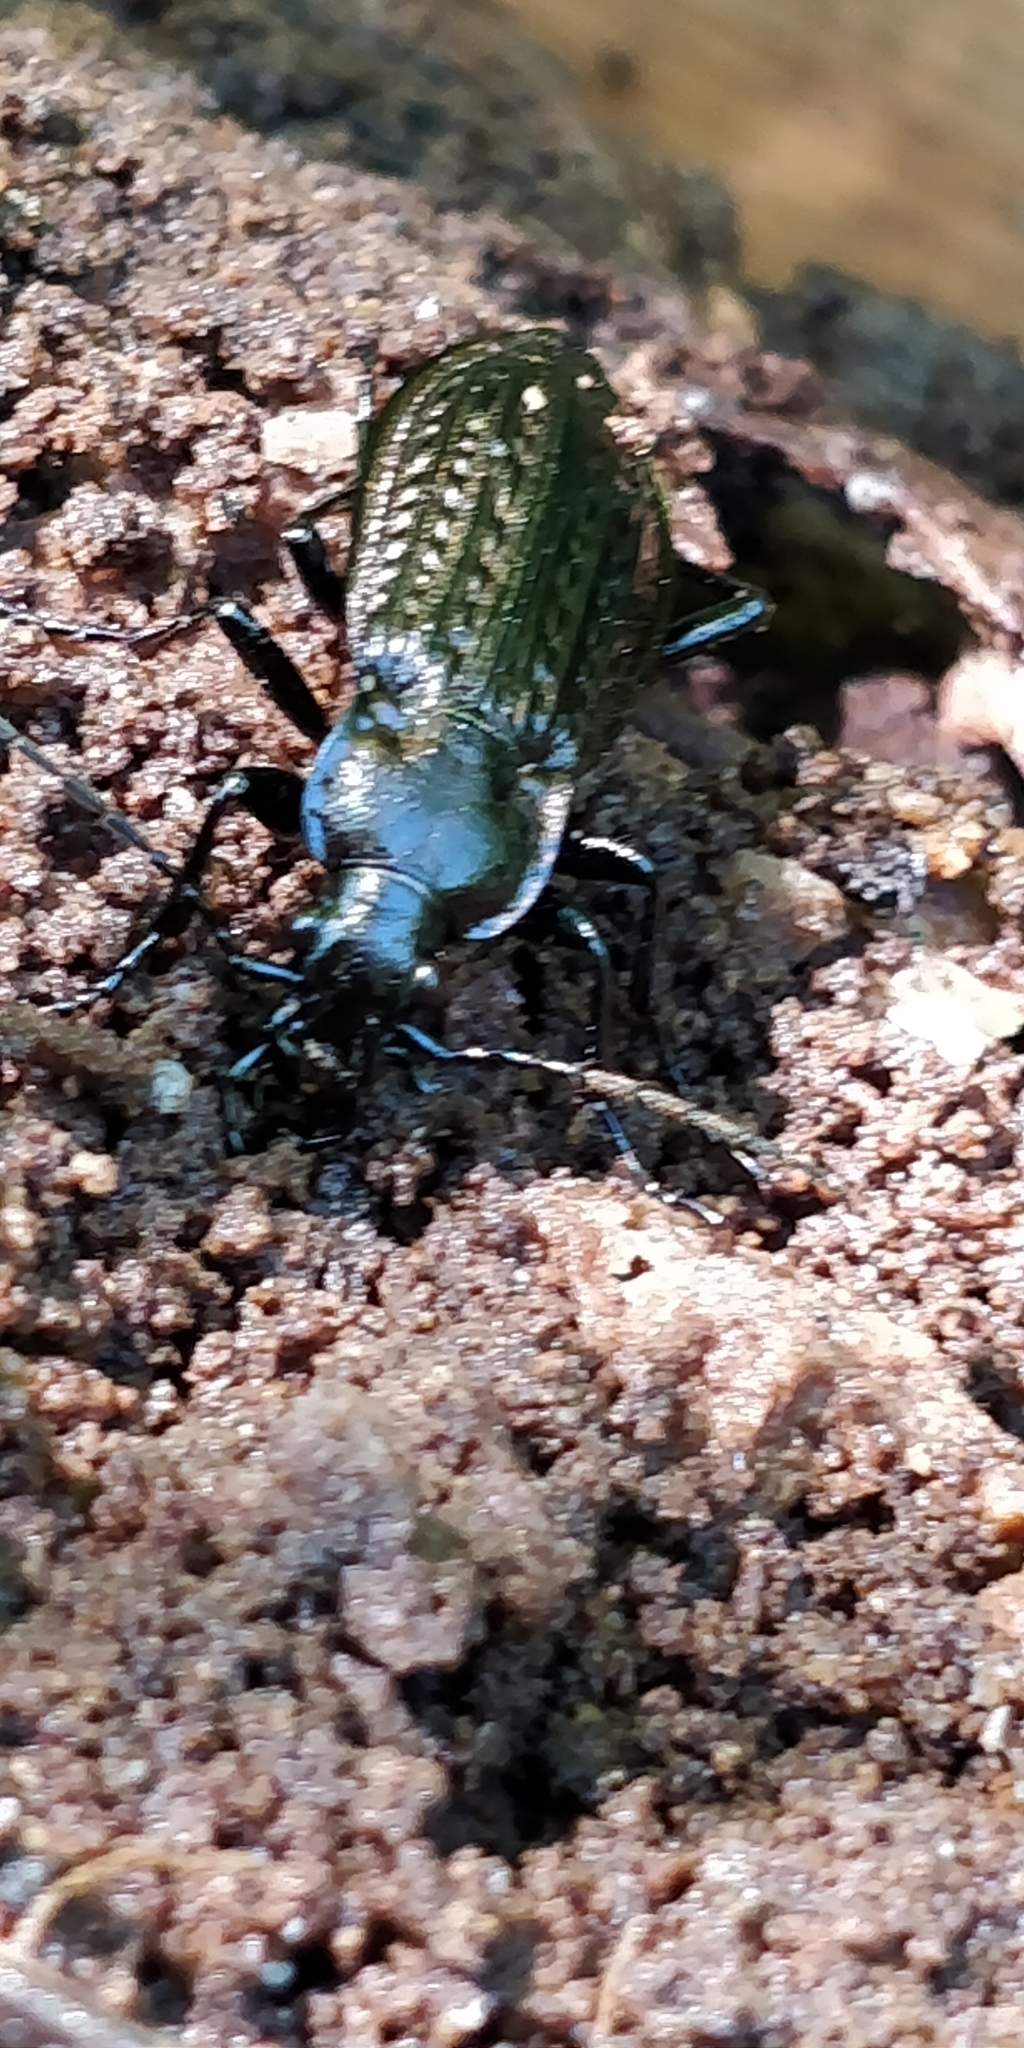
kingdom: Animalia
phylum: Arthropoda
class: Insecta
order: Coleoptera
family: Carabidae
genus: Carabus
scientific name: Carabus granulatus
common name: Granulate ground beetle
